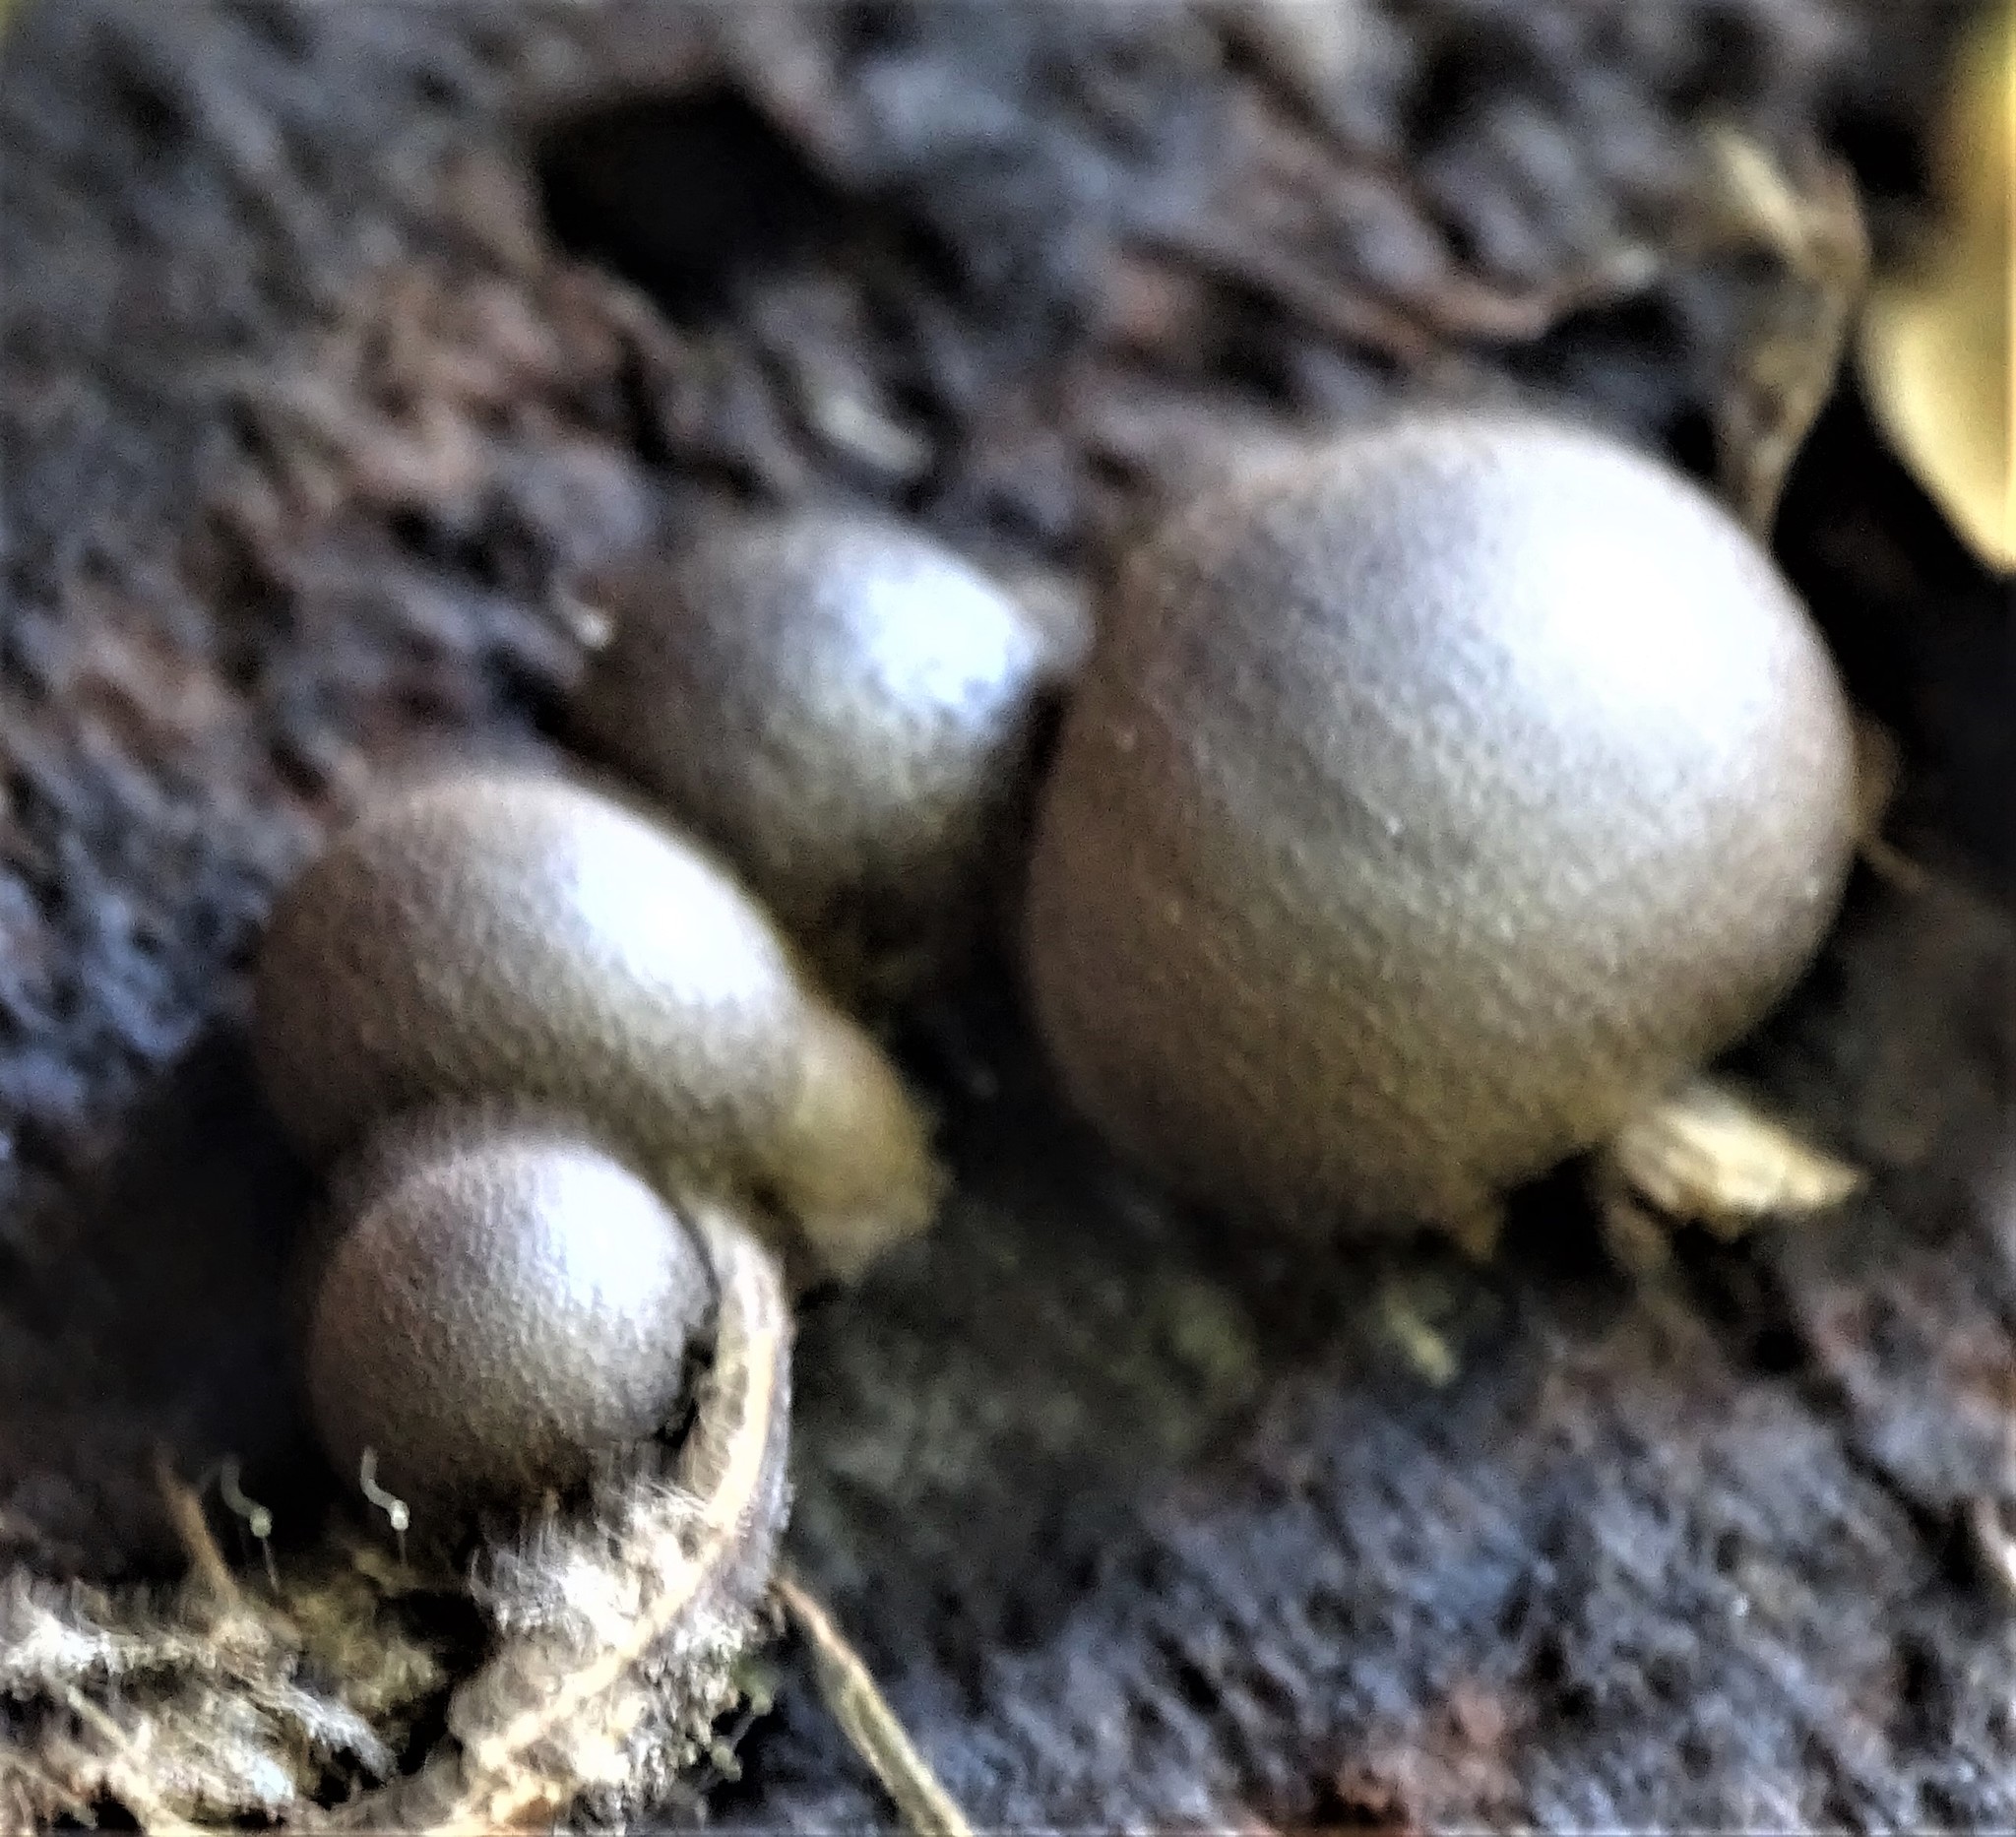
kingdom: Protozoa
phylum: Mycetozoa
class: Myxomycetes
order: Cribrariales
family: Tubiferaceae
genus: Lycogala
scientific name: Lycogala epidendrum
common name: Wolf's milk
